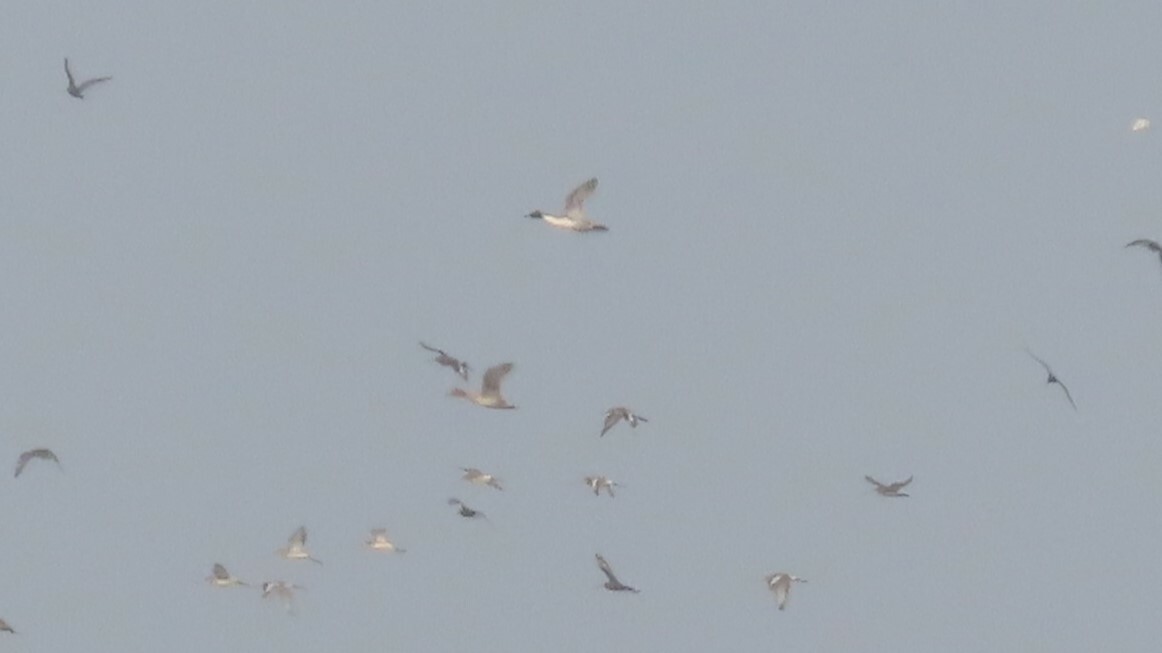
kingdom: Animalia
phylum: Chordata
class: Aves
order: Anseriformes
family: Anatidae
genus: Anas
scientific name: Anas acuta
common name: Northern pintail
